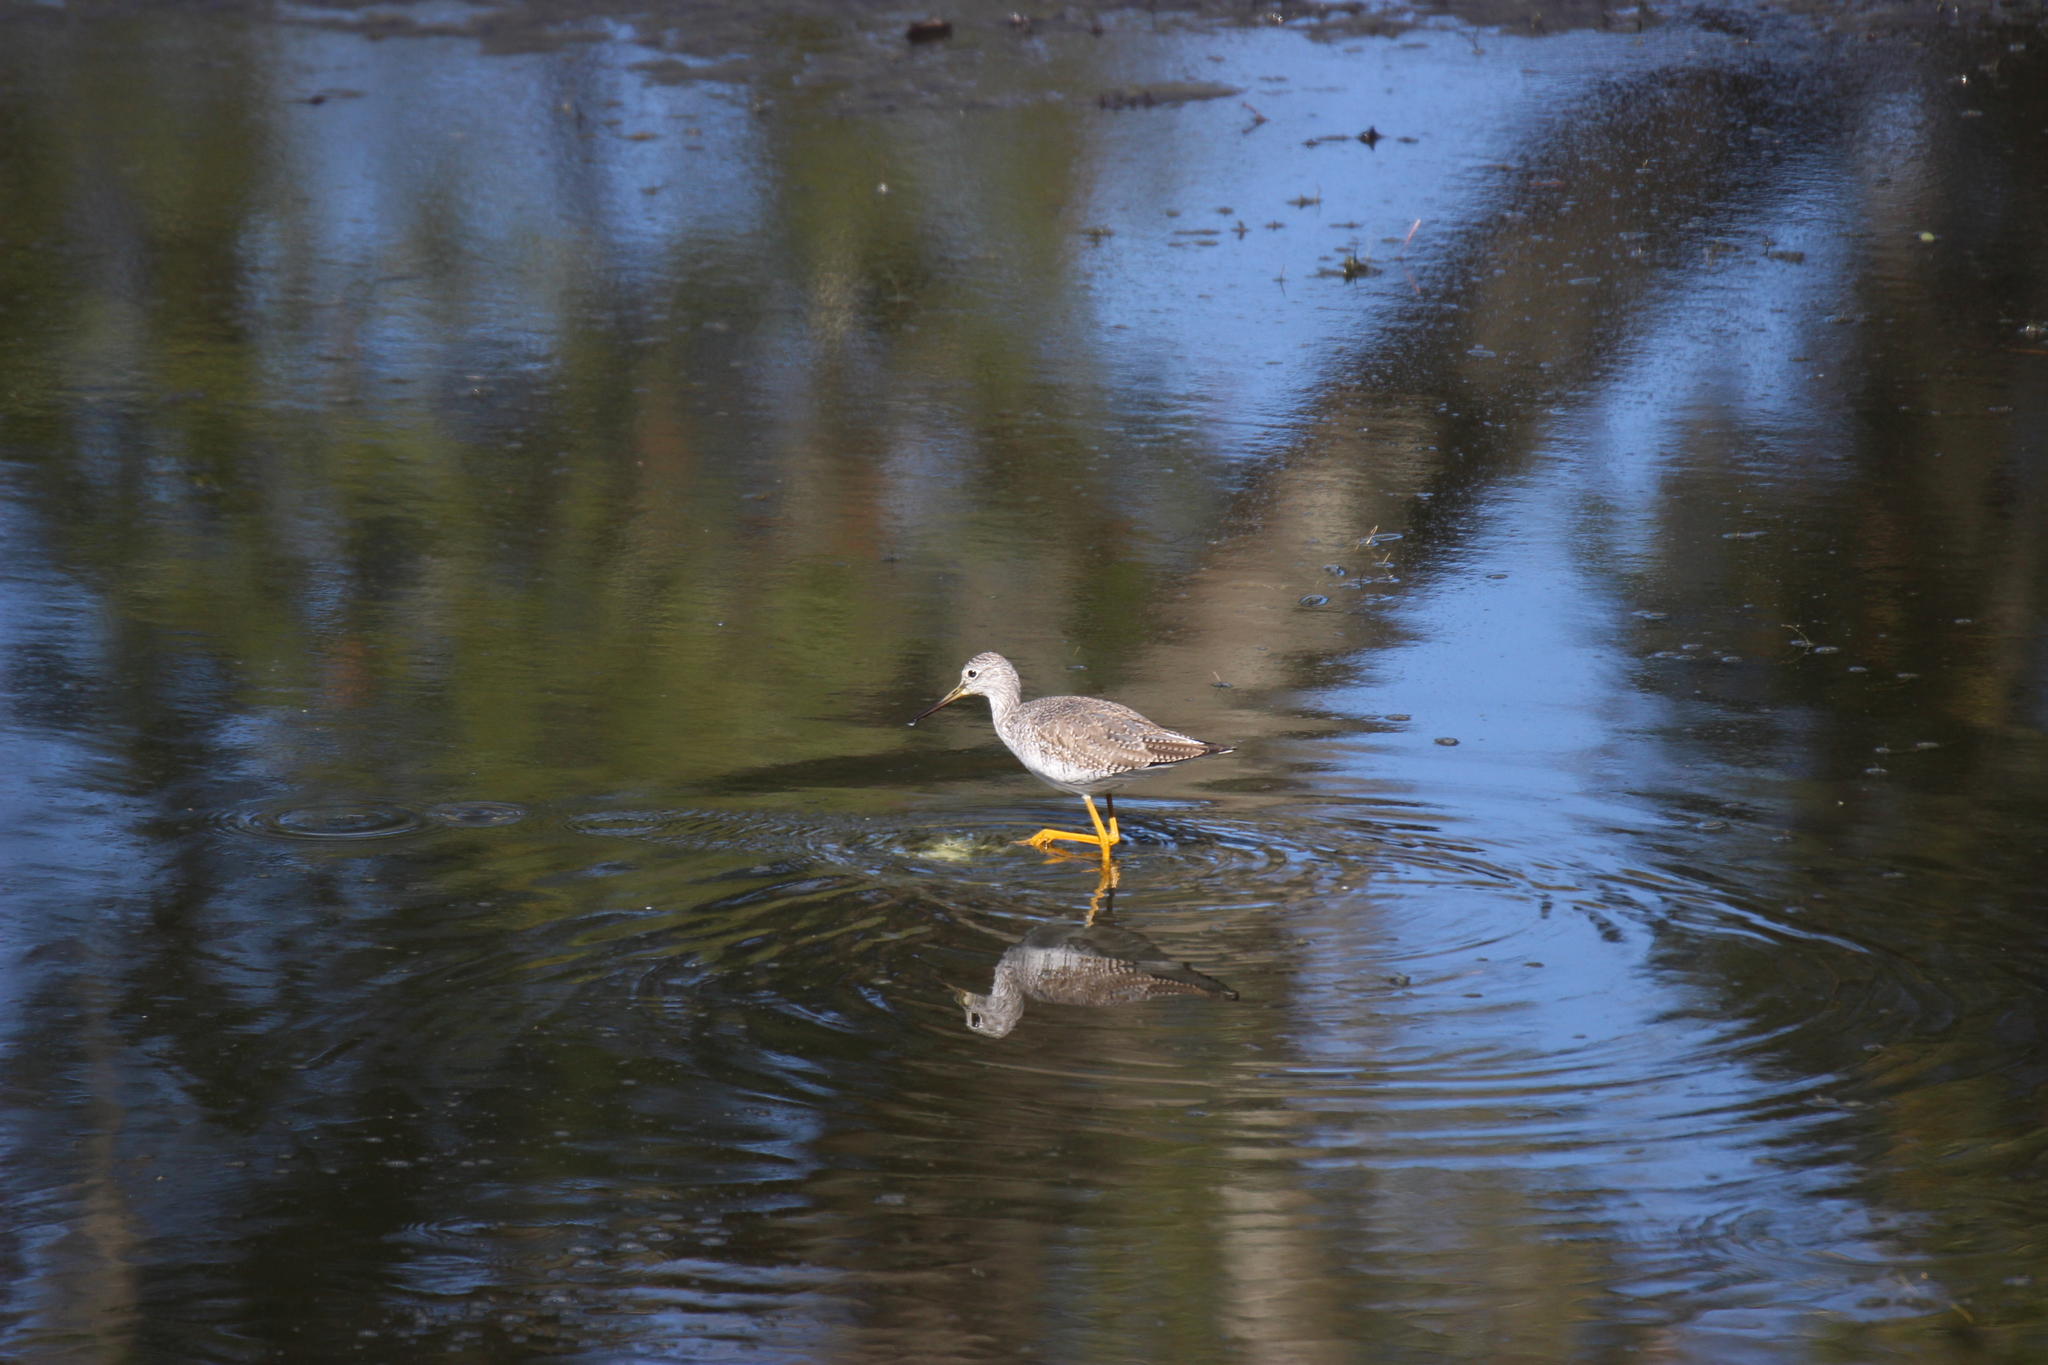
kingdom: Animalia
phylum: Chordata
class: Aves
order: Charadriiformes
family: Scolopacidae
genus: Tringa
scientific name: Tringa melanoleuca
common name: Greater yellowlegs
